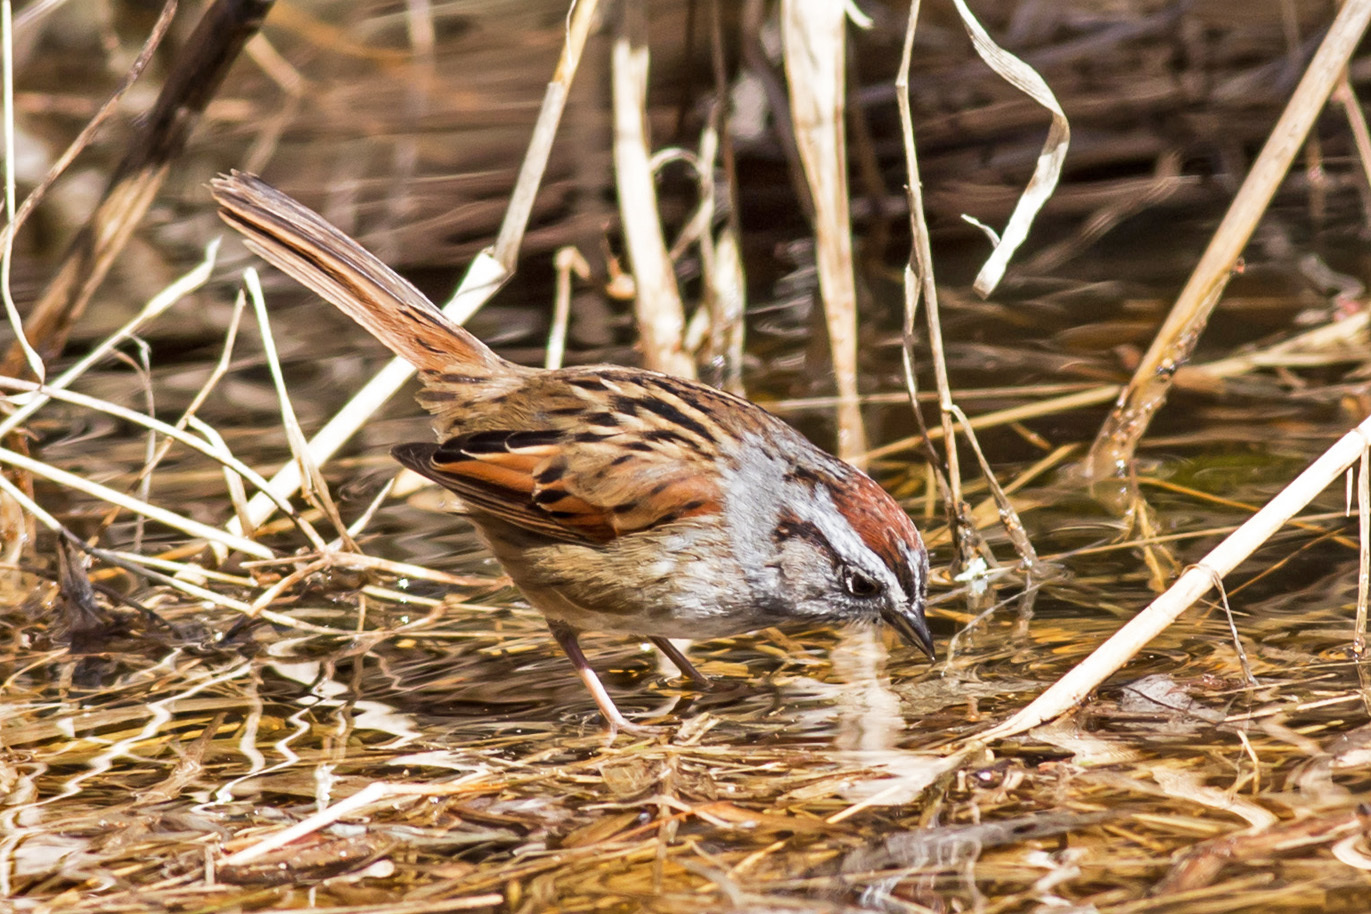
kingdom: Animalia
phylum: Chordata
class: Aves
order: Passeriformes
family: Passerellidae
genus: Melospiza
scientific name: Melospiza georgiana
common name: Swamp sparrow
